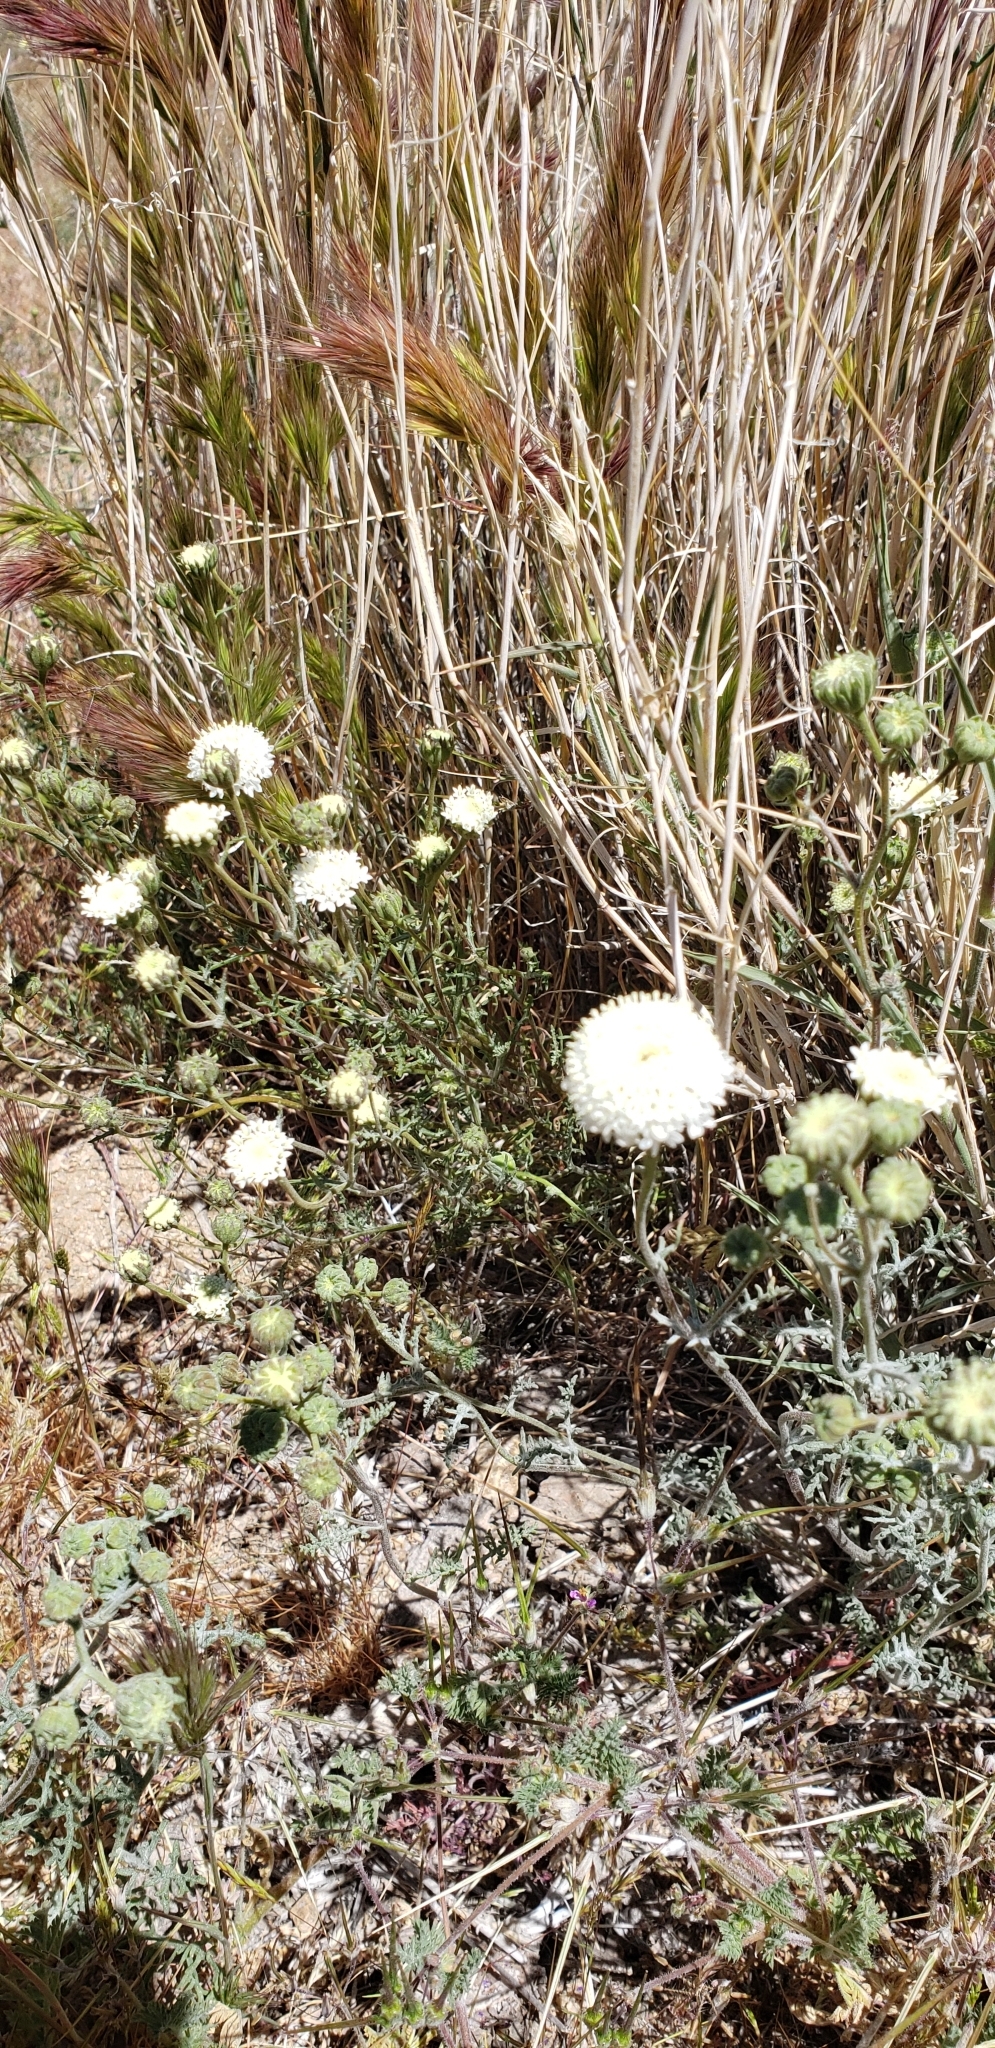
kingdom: Plantae
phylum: Tracheophyta
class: Magnoliopsida
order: Asterales
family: Asteraceae
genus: Chaenactis
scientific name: Chaenactis fremontii
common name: Fremont pincushion
